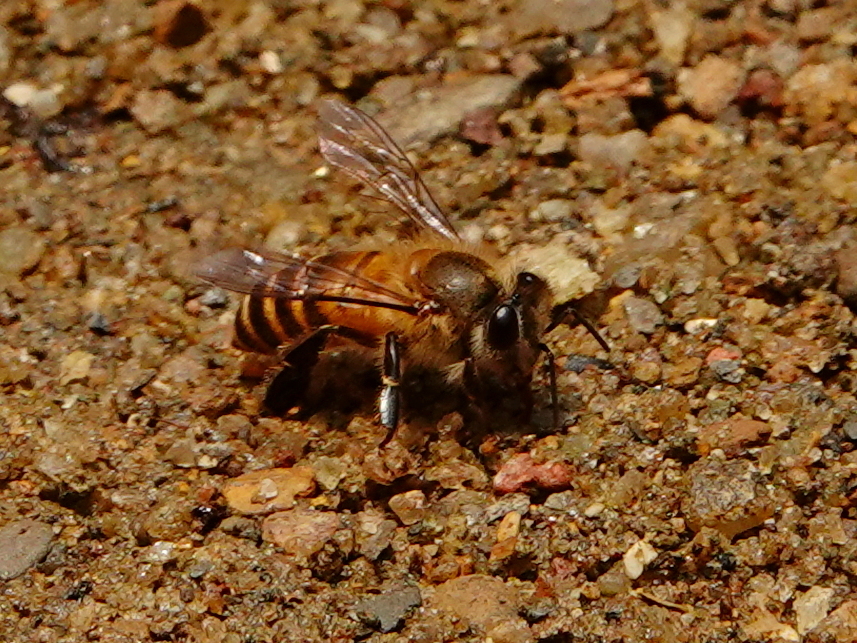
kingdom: Animalia
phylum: Arthropoda
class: Insecta
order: Hymenoptera
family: Apidae
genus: Apis
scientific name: Apis cerana
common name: Honey bee
